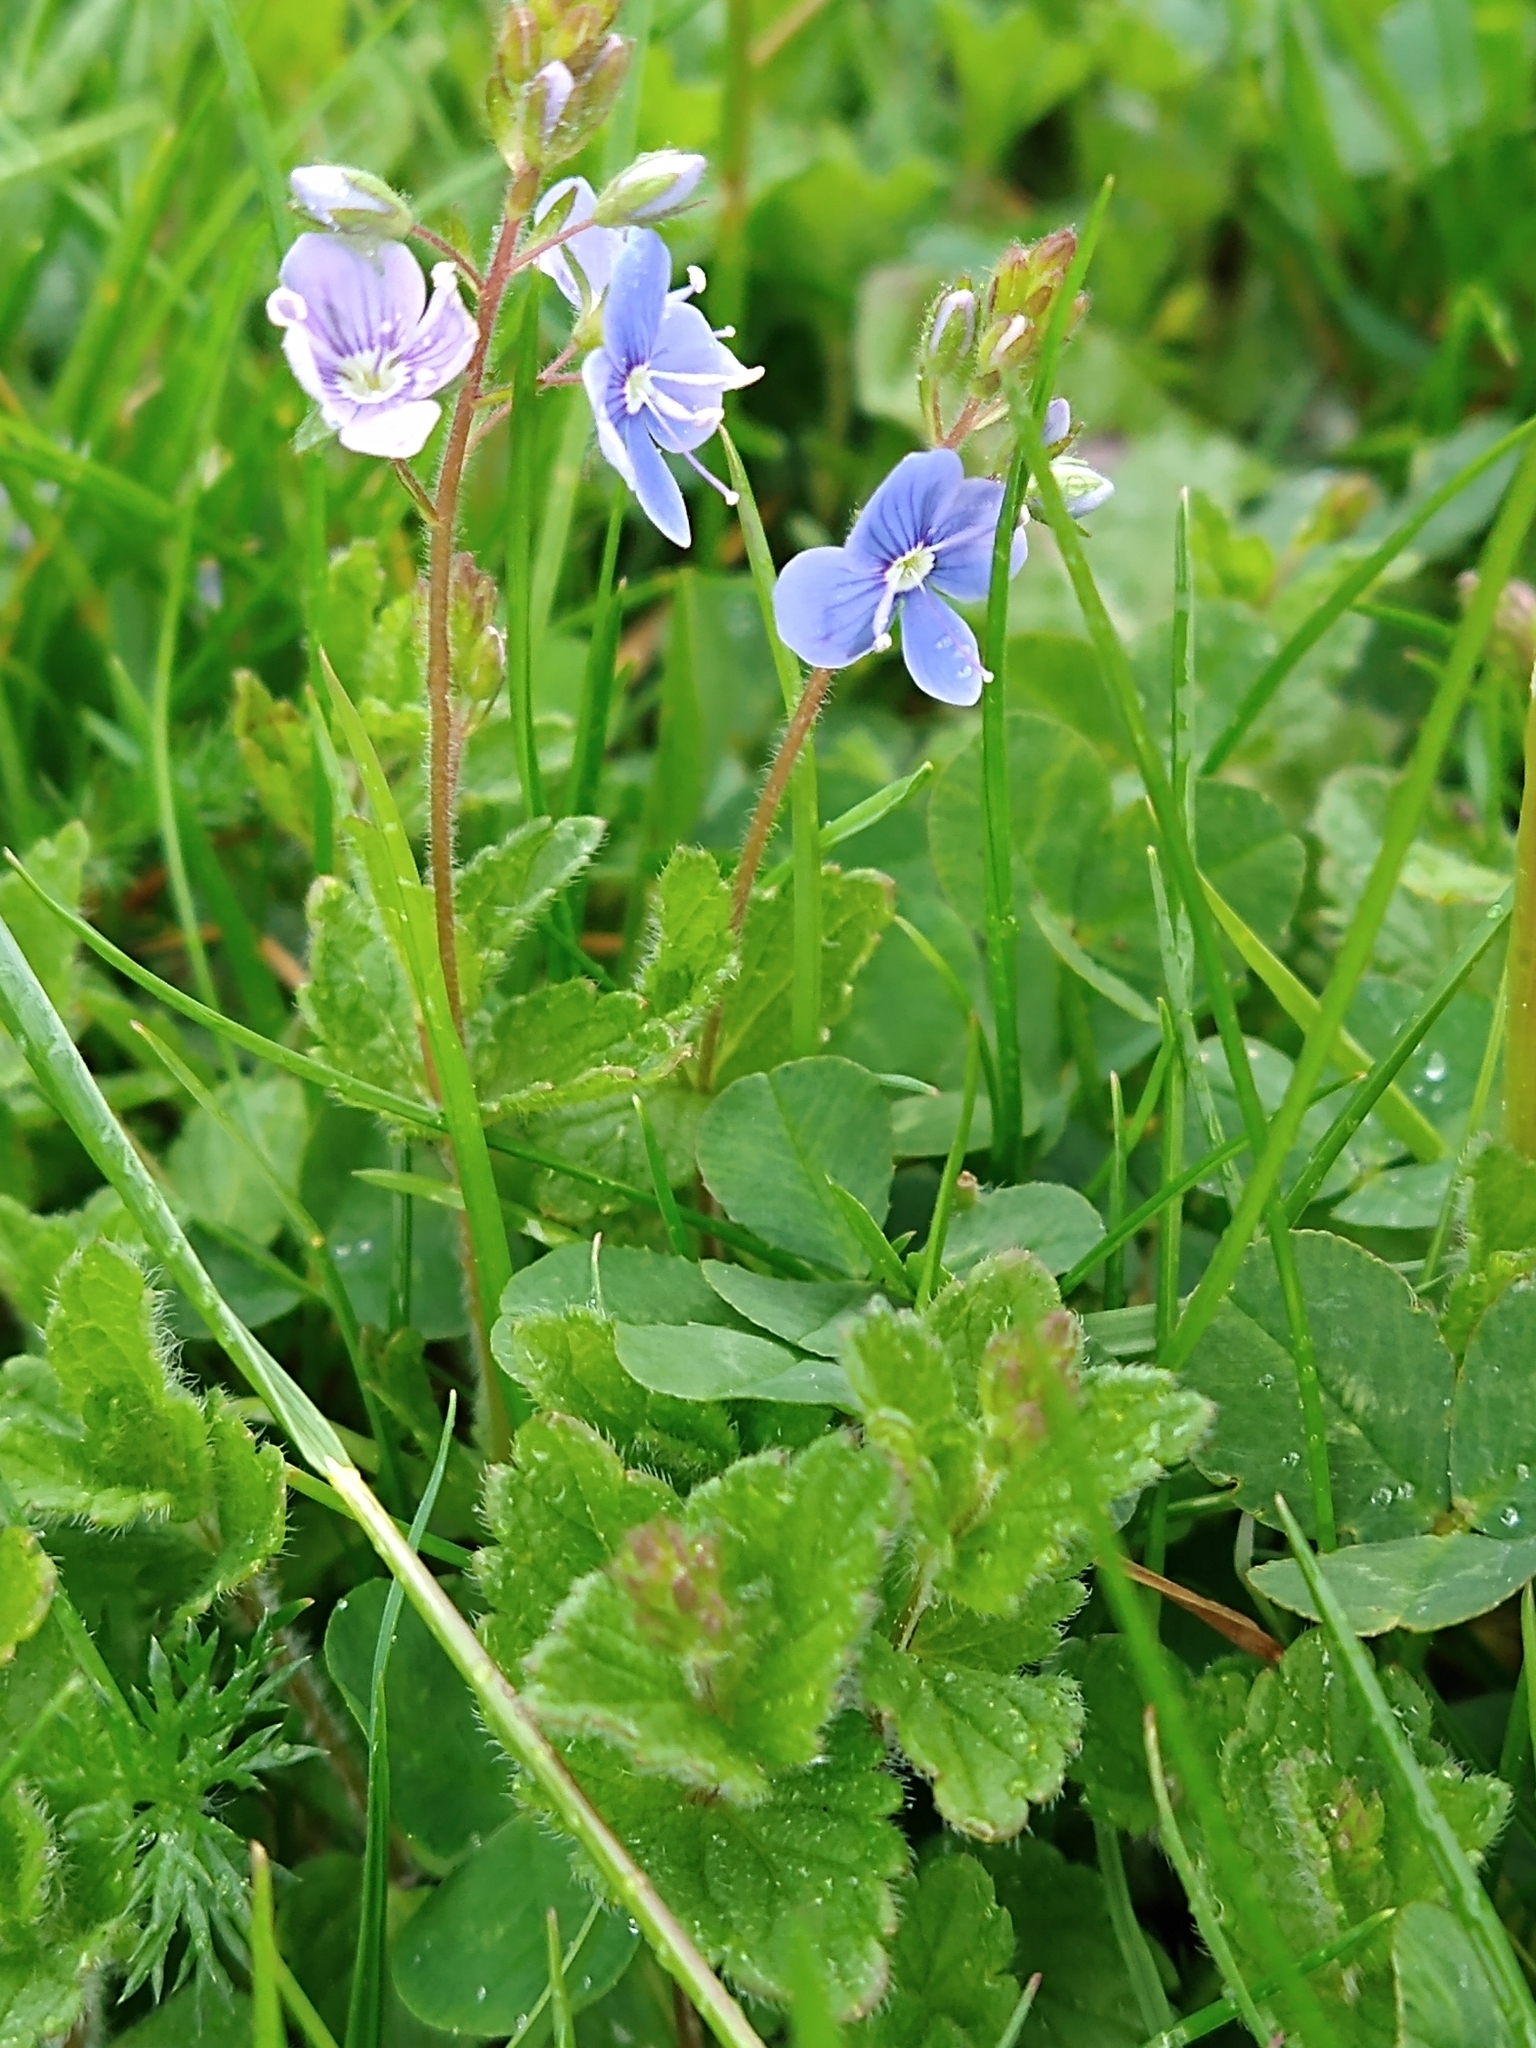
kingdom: Plantae
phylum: Tracheophyta
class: Magnoliopsida
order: Lamiales
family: Plantaginaceae
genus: Veronica
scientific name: Veronica chamaedrys
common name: Germander speedwell
